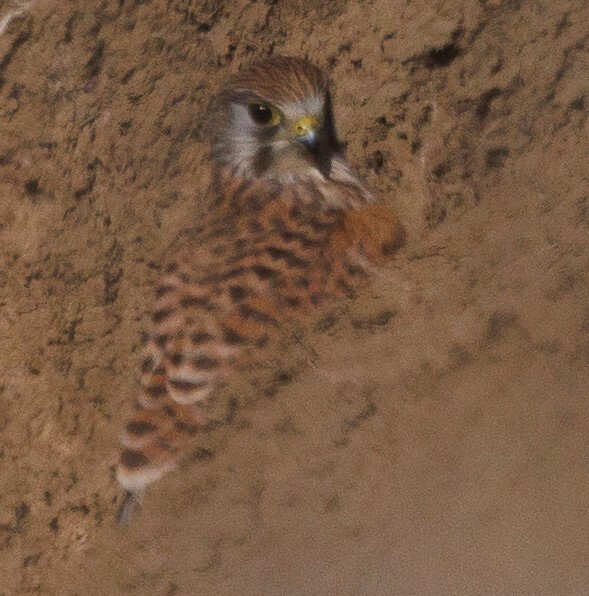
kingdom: Animalia
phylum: Chordata
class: Aves
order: Falconiformes
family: Falconidae
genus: Falco
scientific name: Falco tinnunculus
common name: Common kestrel
